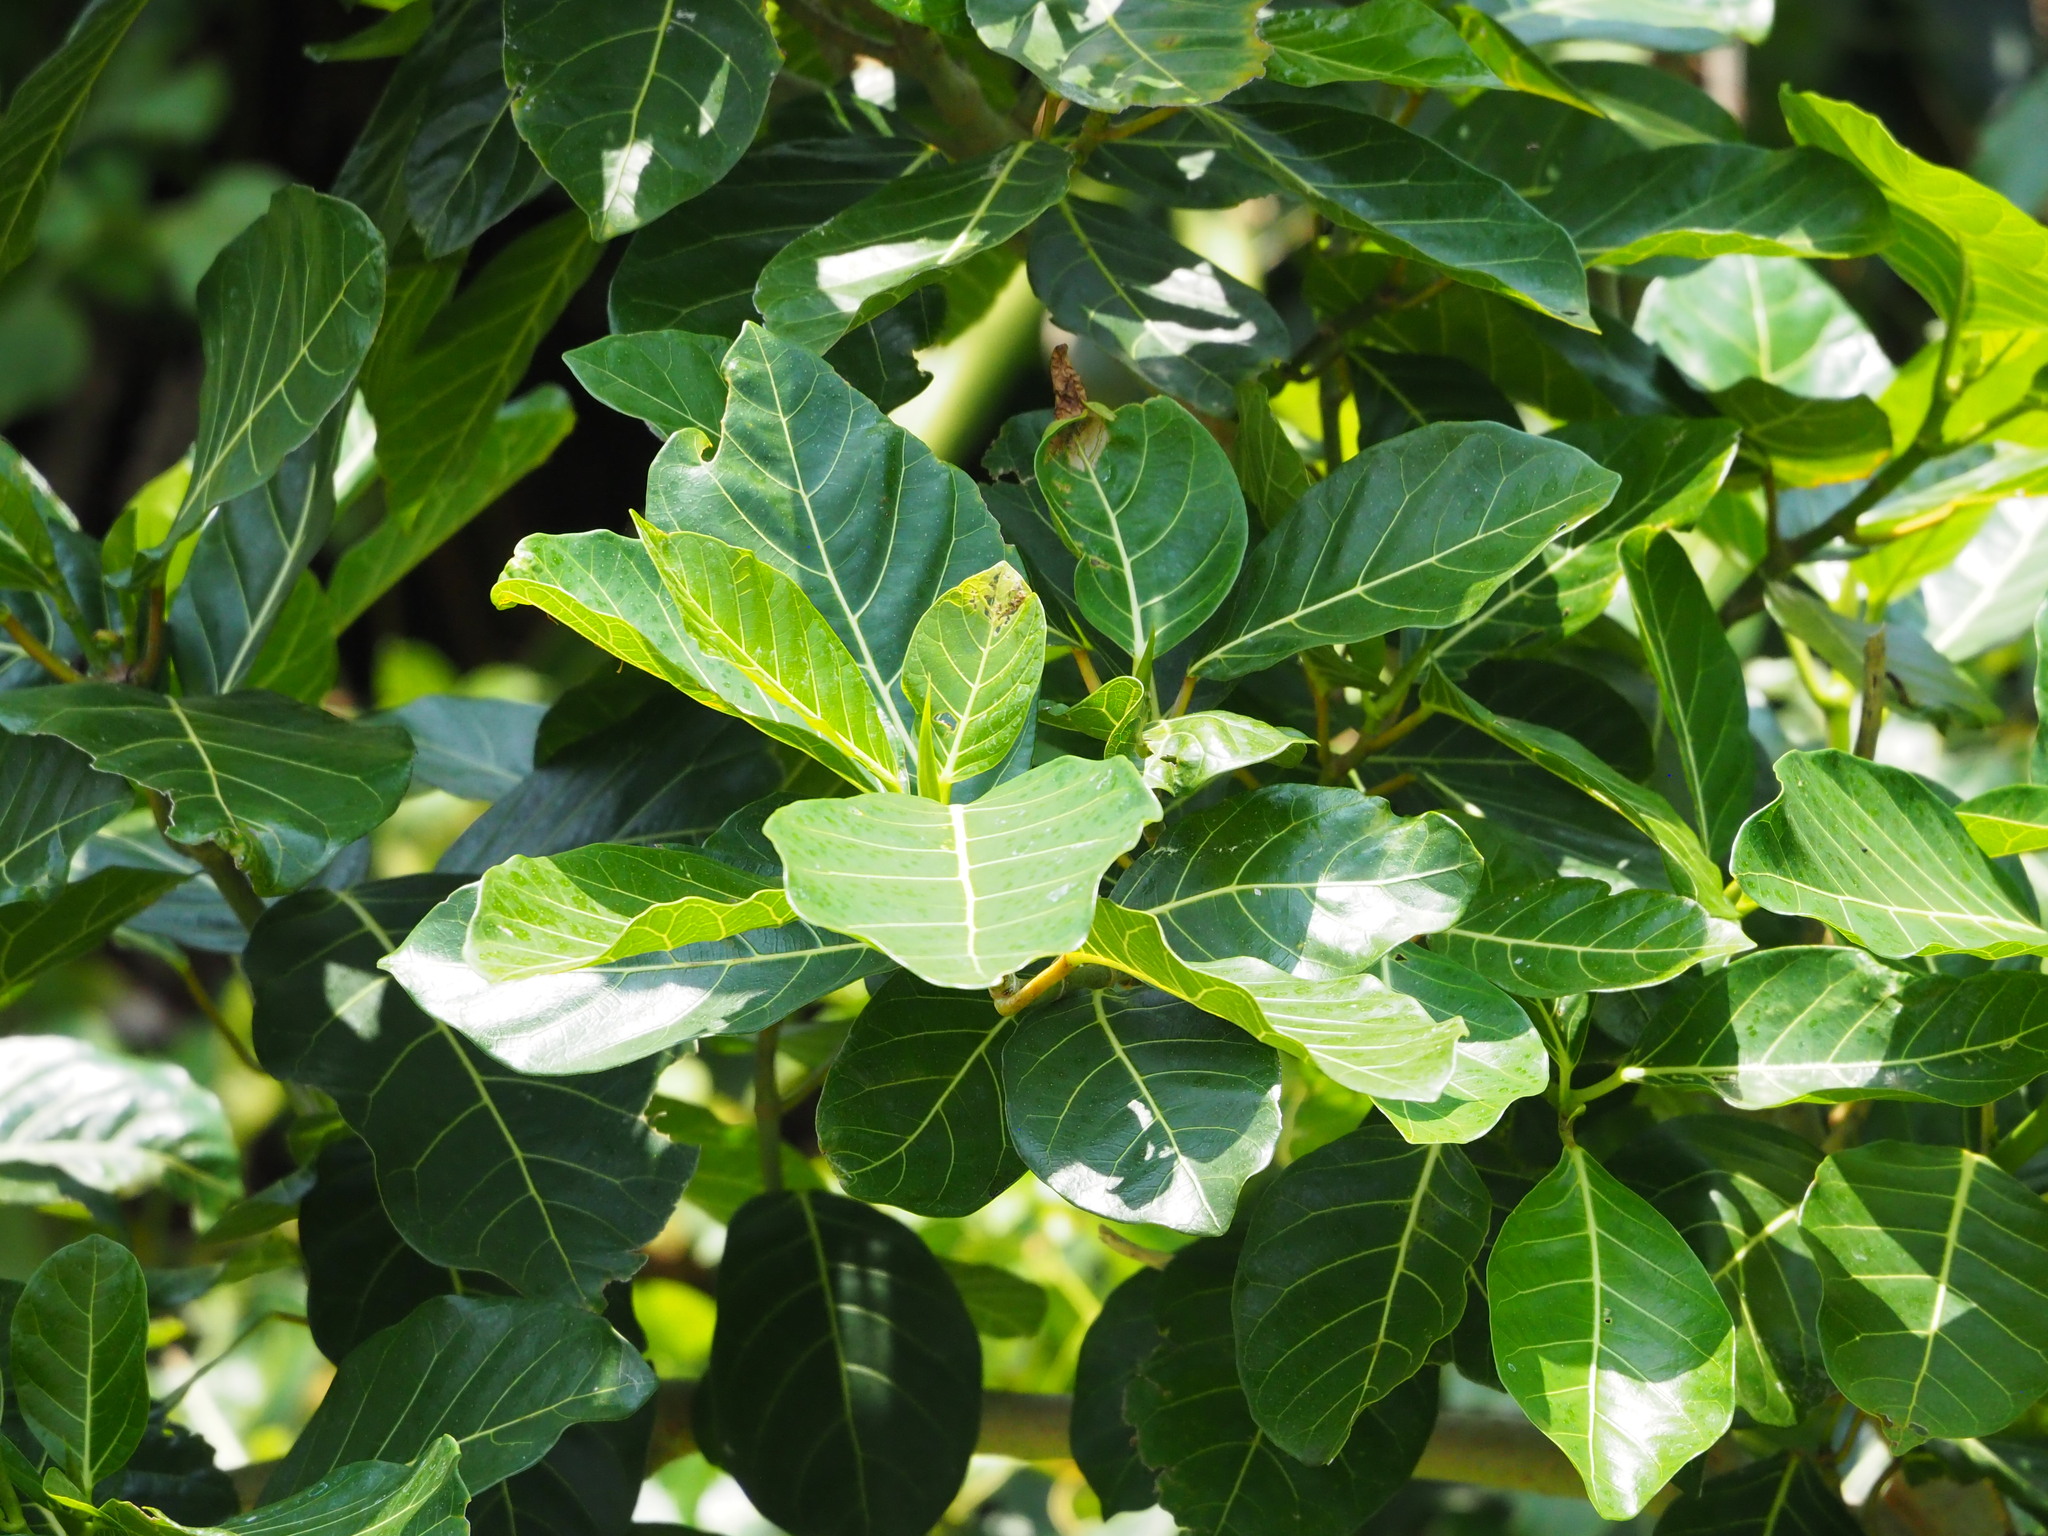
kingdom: Plantae
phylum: Tracheophyta
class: Magnoliopsida
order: Rosales
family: Moraceae
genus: Ficus
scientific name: Ficus septica
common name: Septic fig
